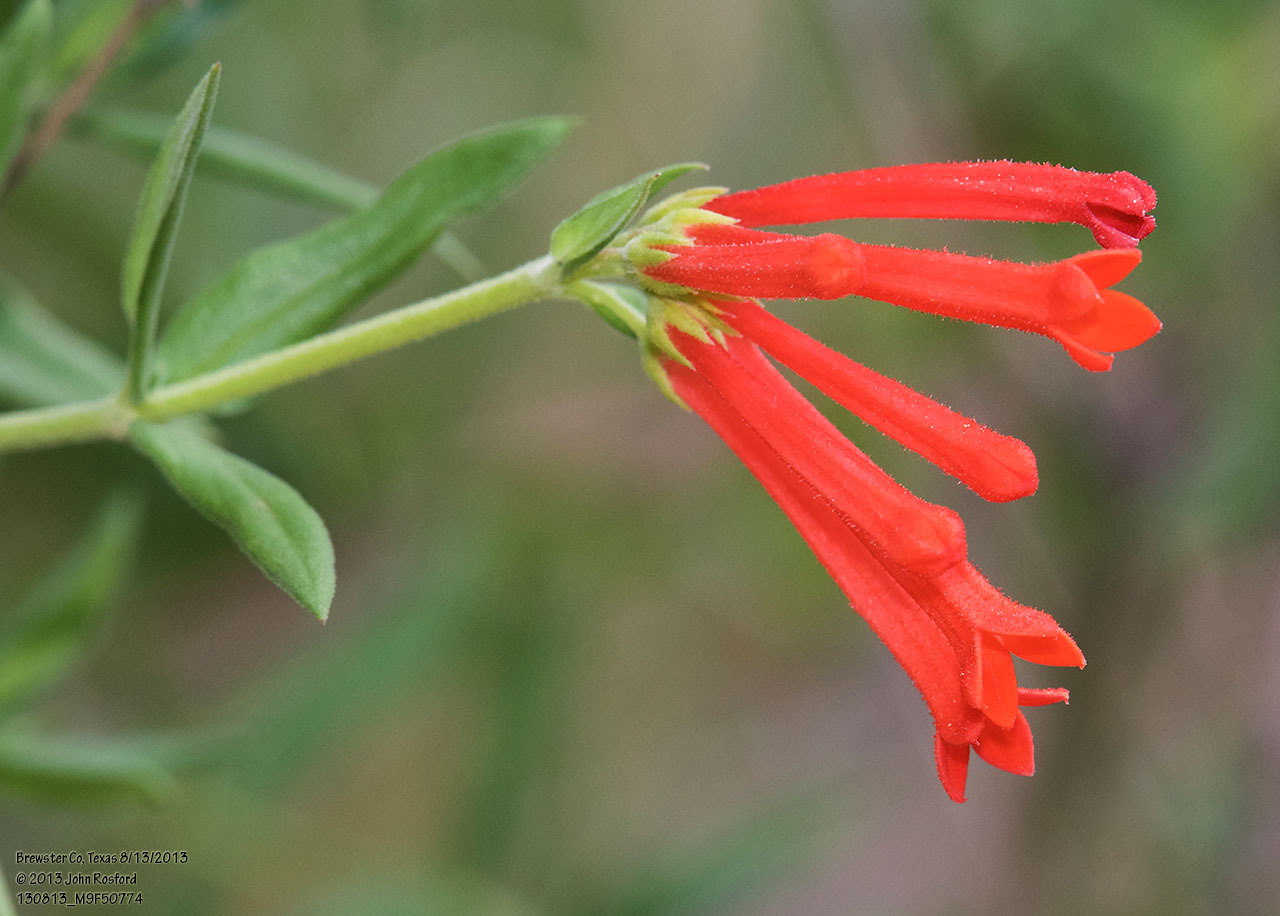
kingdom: Plantae
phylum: Tracheophyta
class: Magnoliopsida
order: Gentianales
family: Rubiaceae
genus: Bouvardia
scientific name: Bouvardia ternifolia
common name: Scarlet bouvardia
